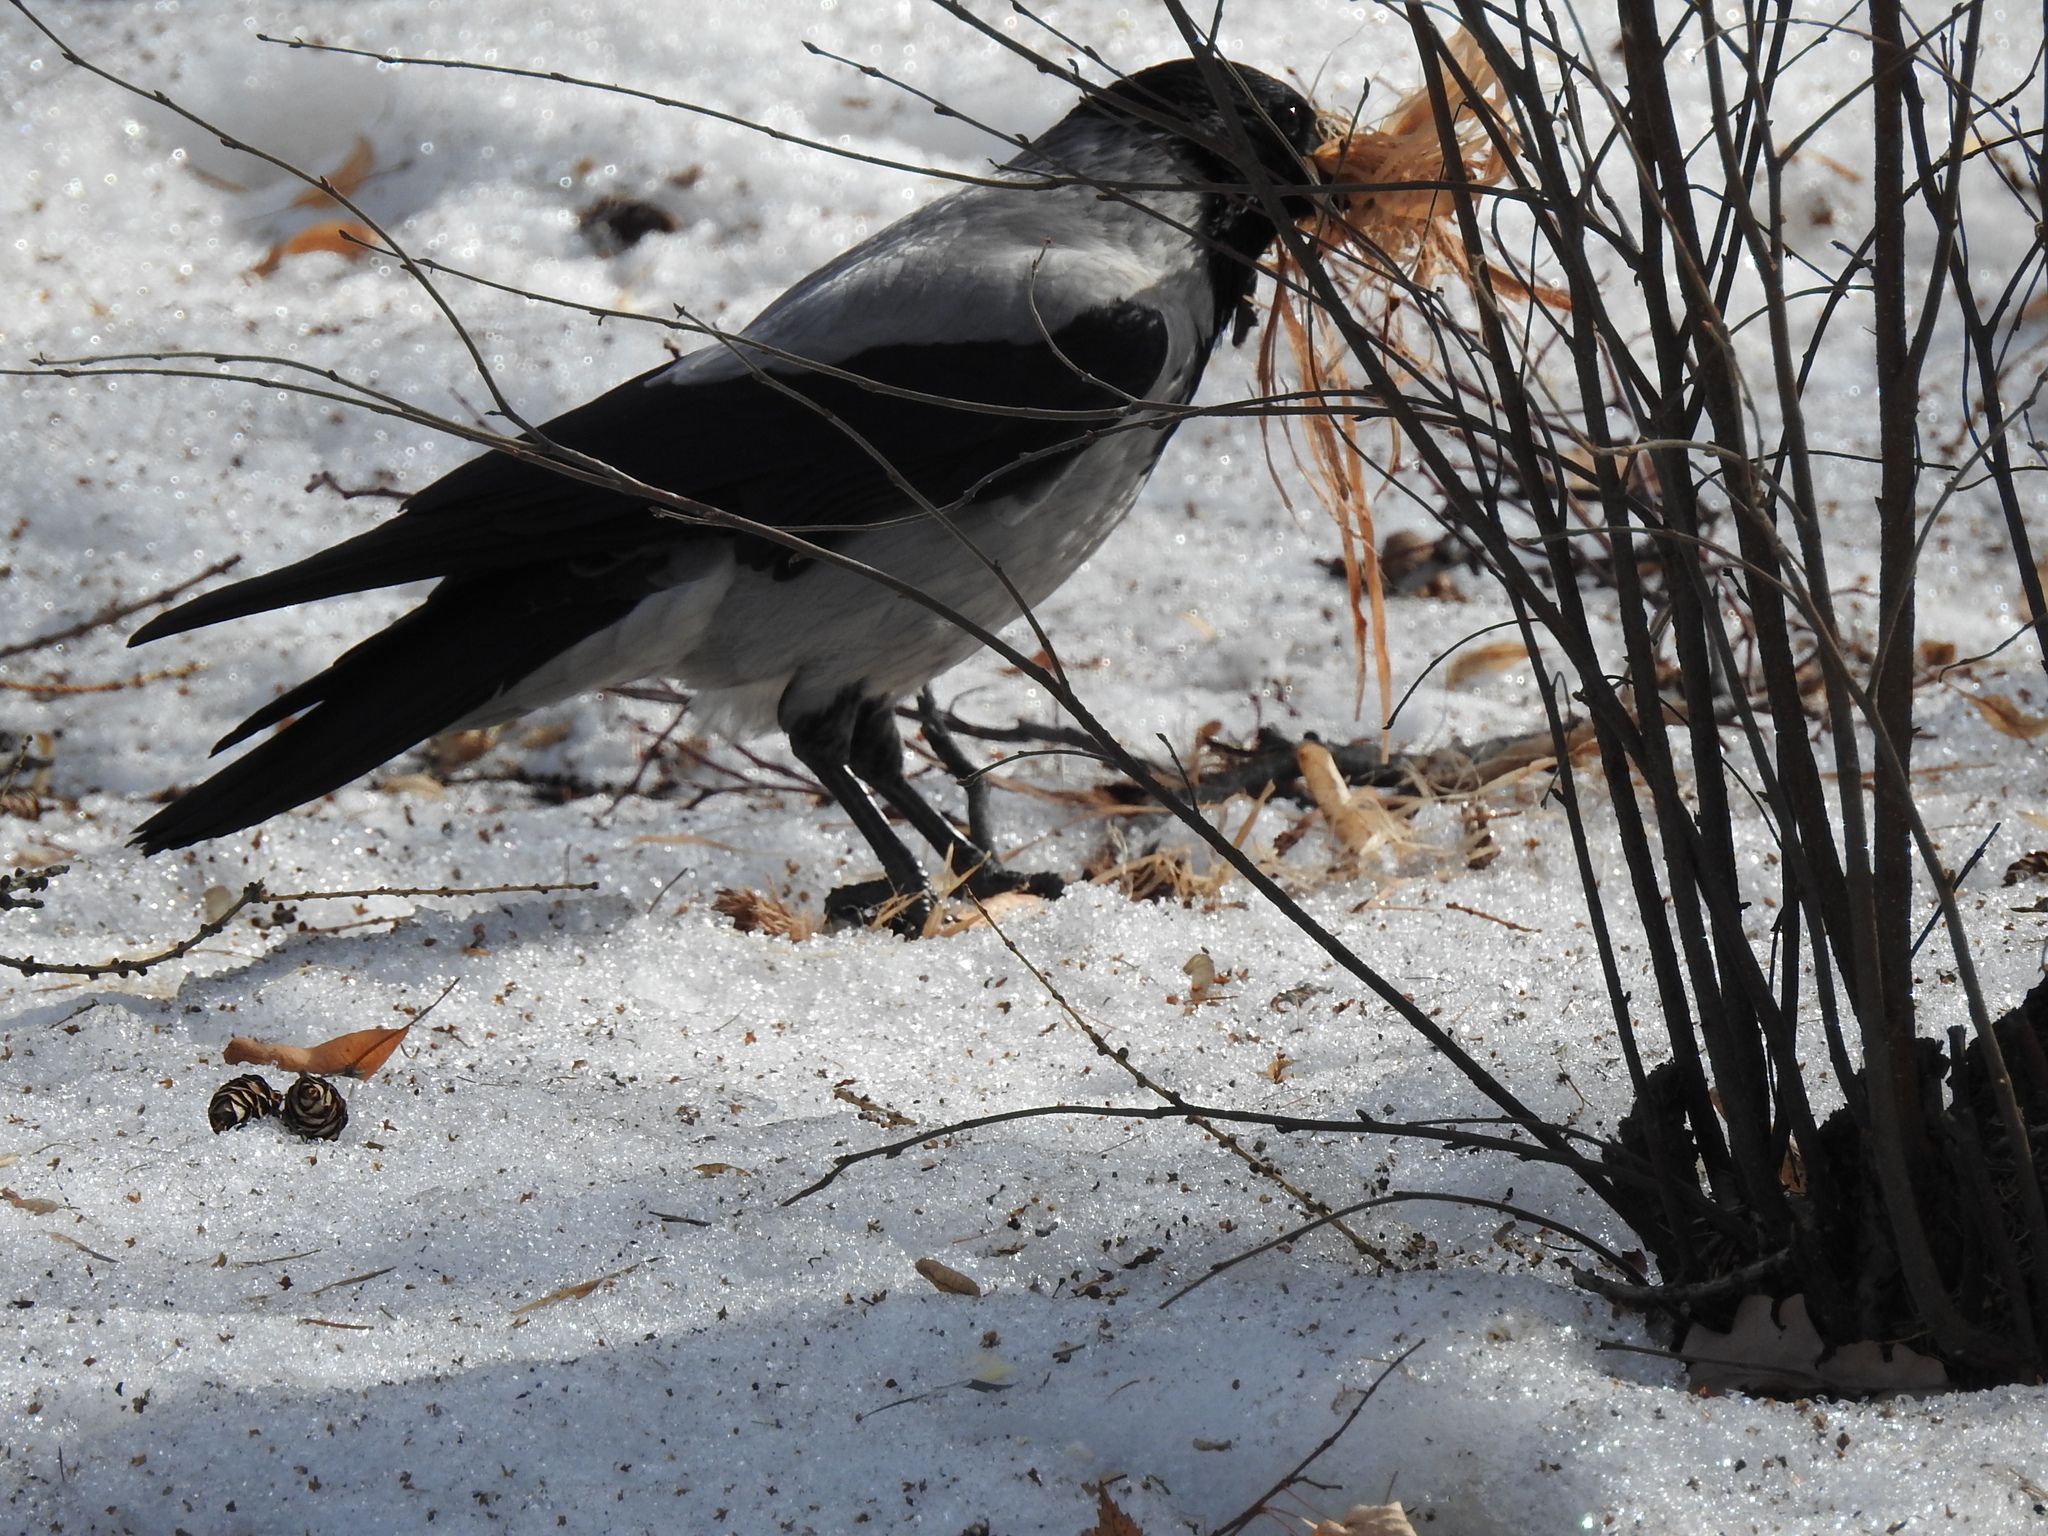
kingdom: Animalia
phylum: Chordata
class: Aves
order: Passeriformes
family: Corvidae
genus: Corvus
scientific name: Corvus cornix
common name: Hooded crow
